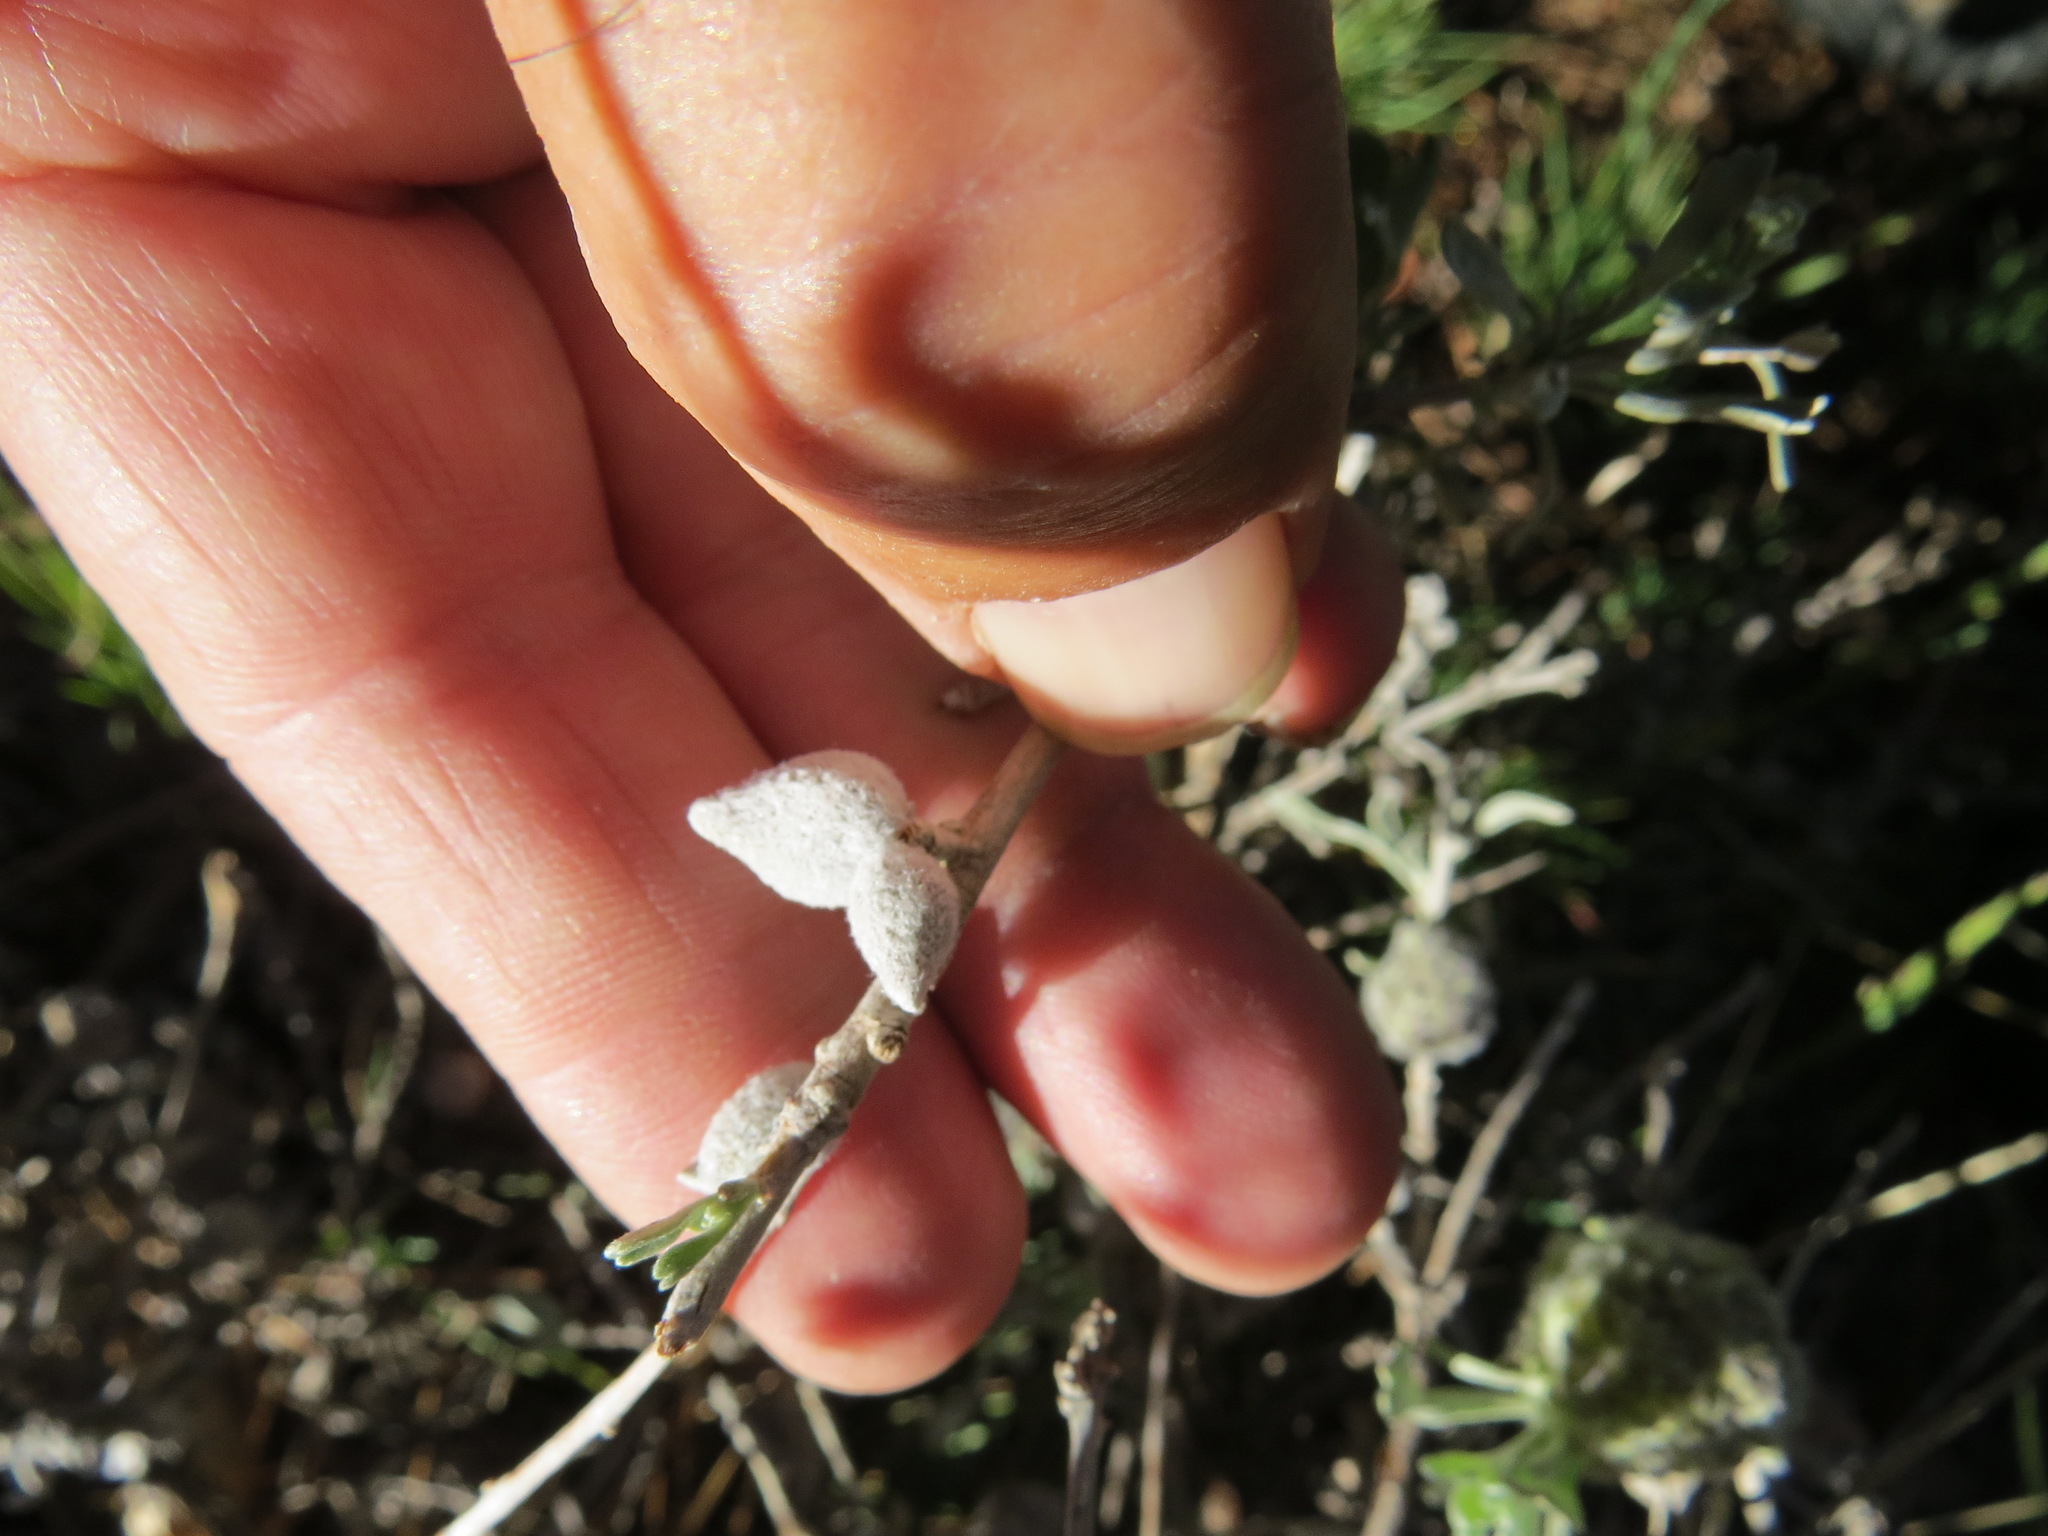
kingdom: Animalia
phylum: Arthropoda
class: Insecta
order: Diptera
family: Cecidomyiidae
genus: Rhopalomyia
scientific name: Rhopalomyia nucula
